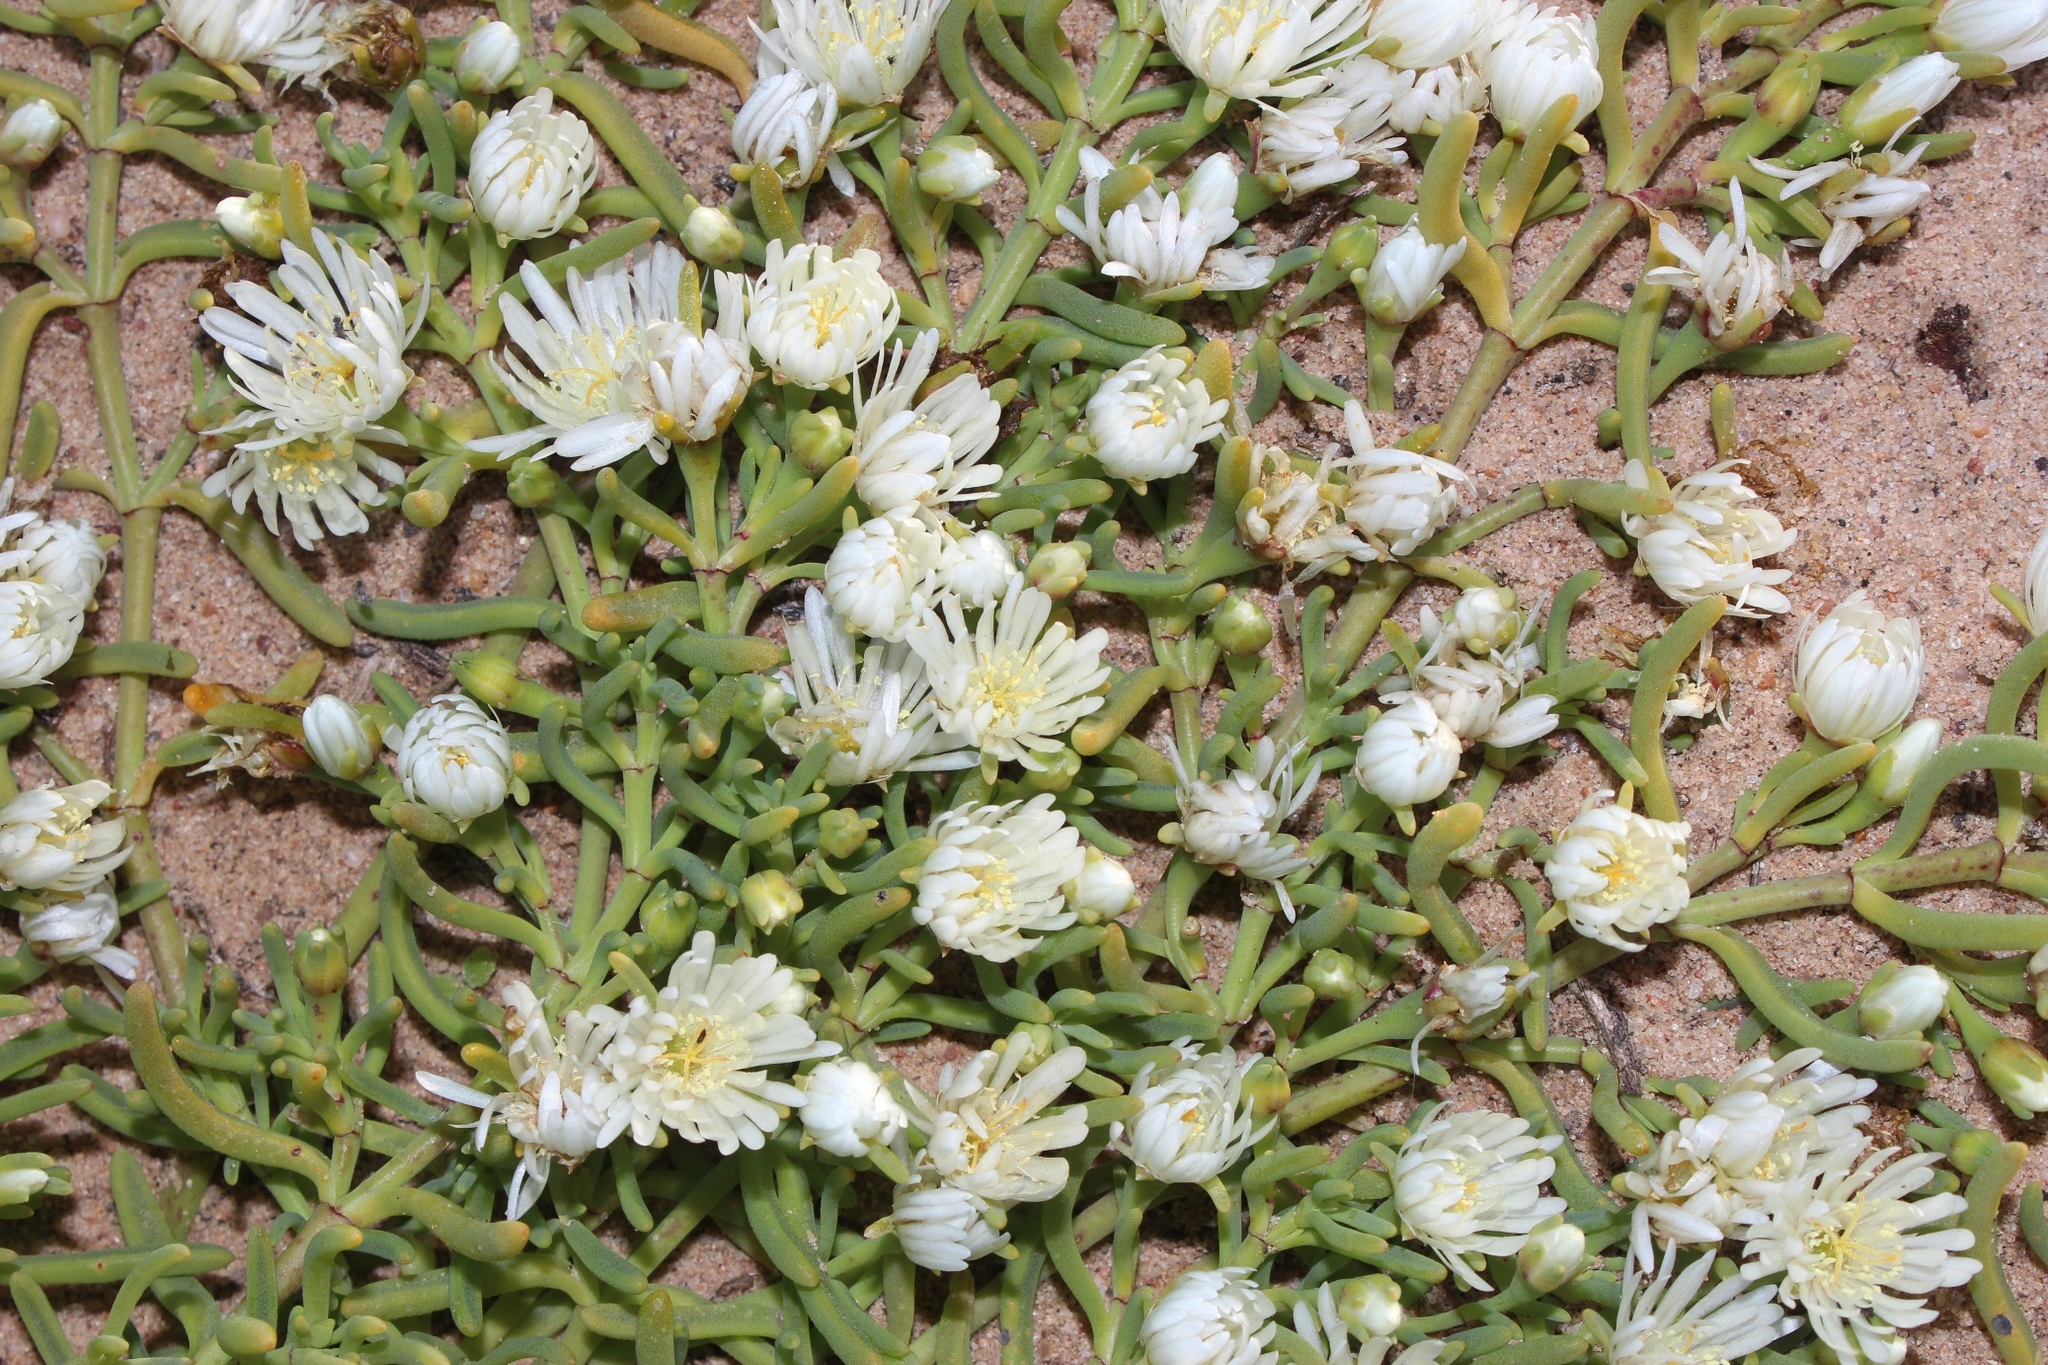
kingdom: Plantae
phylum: Tracheophyta
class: Magnoliopsida
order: Caryophyllales
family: Aizoaceae
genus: Mesembryanthemum
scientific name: Mesembryanthemum rapaceum
